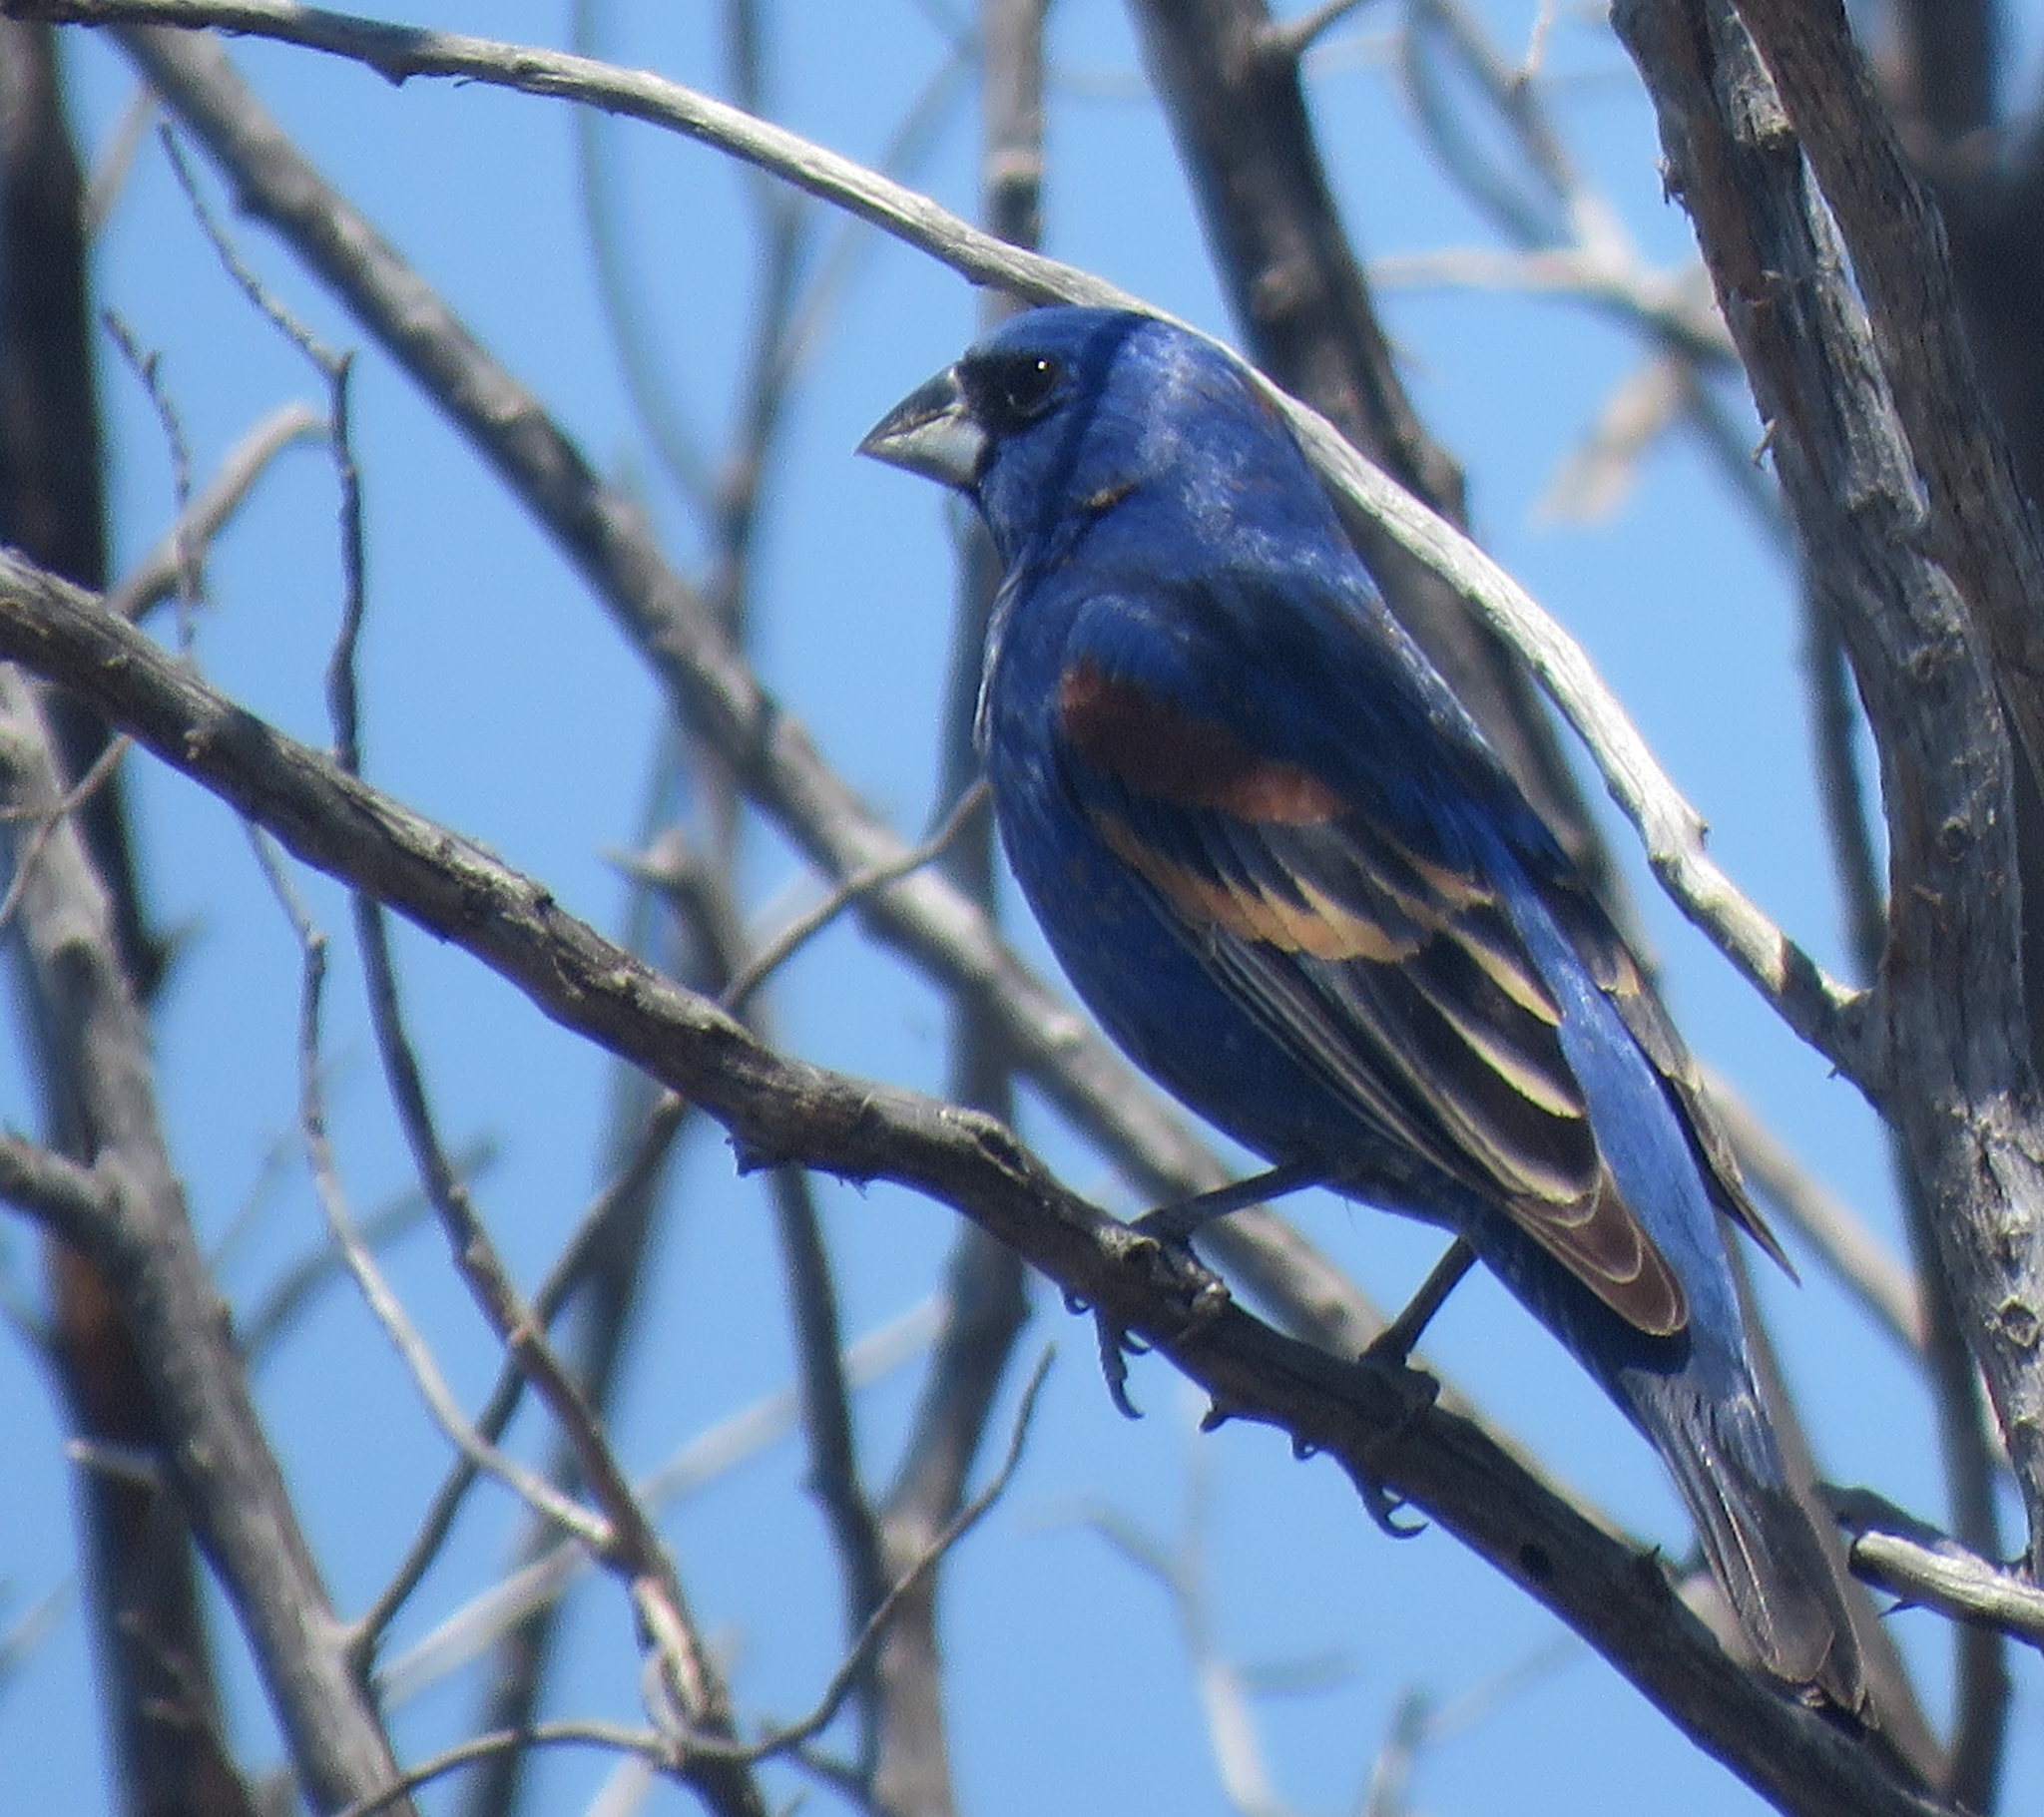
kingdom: Animalia
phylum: Chordata
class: Aves
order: Passeriformes
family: Cardinalidae
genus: Passerina
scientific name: Passerina caerulea
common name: Blue grosbeak
